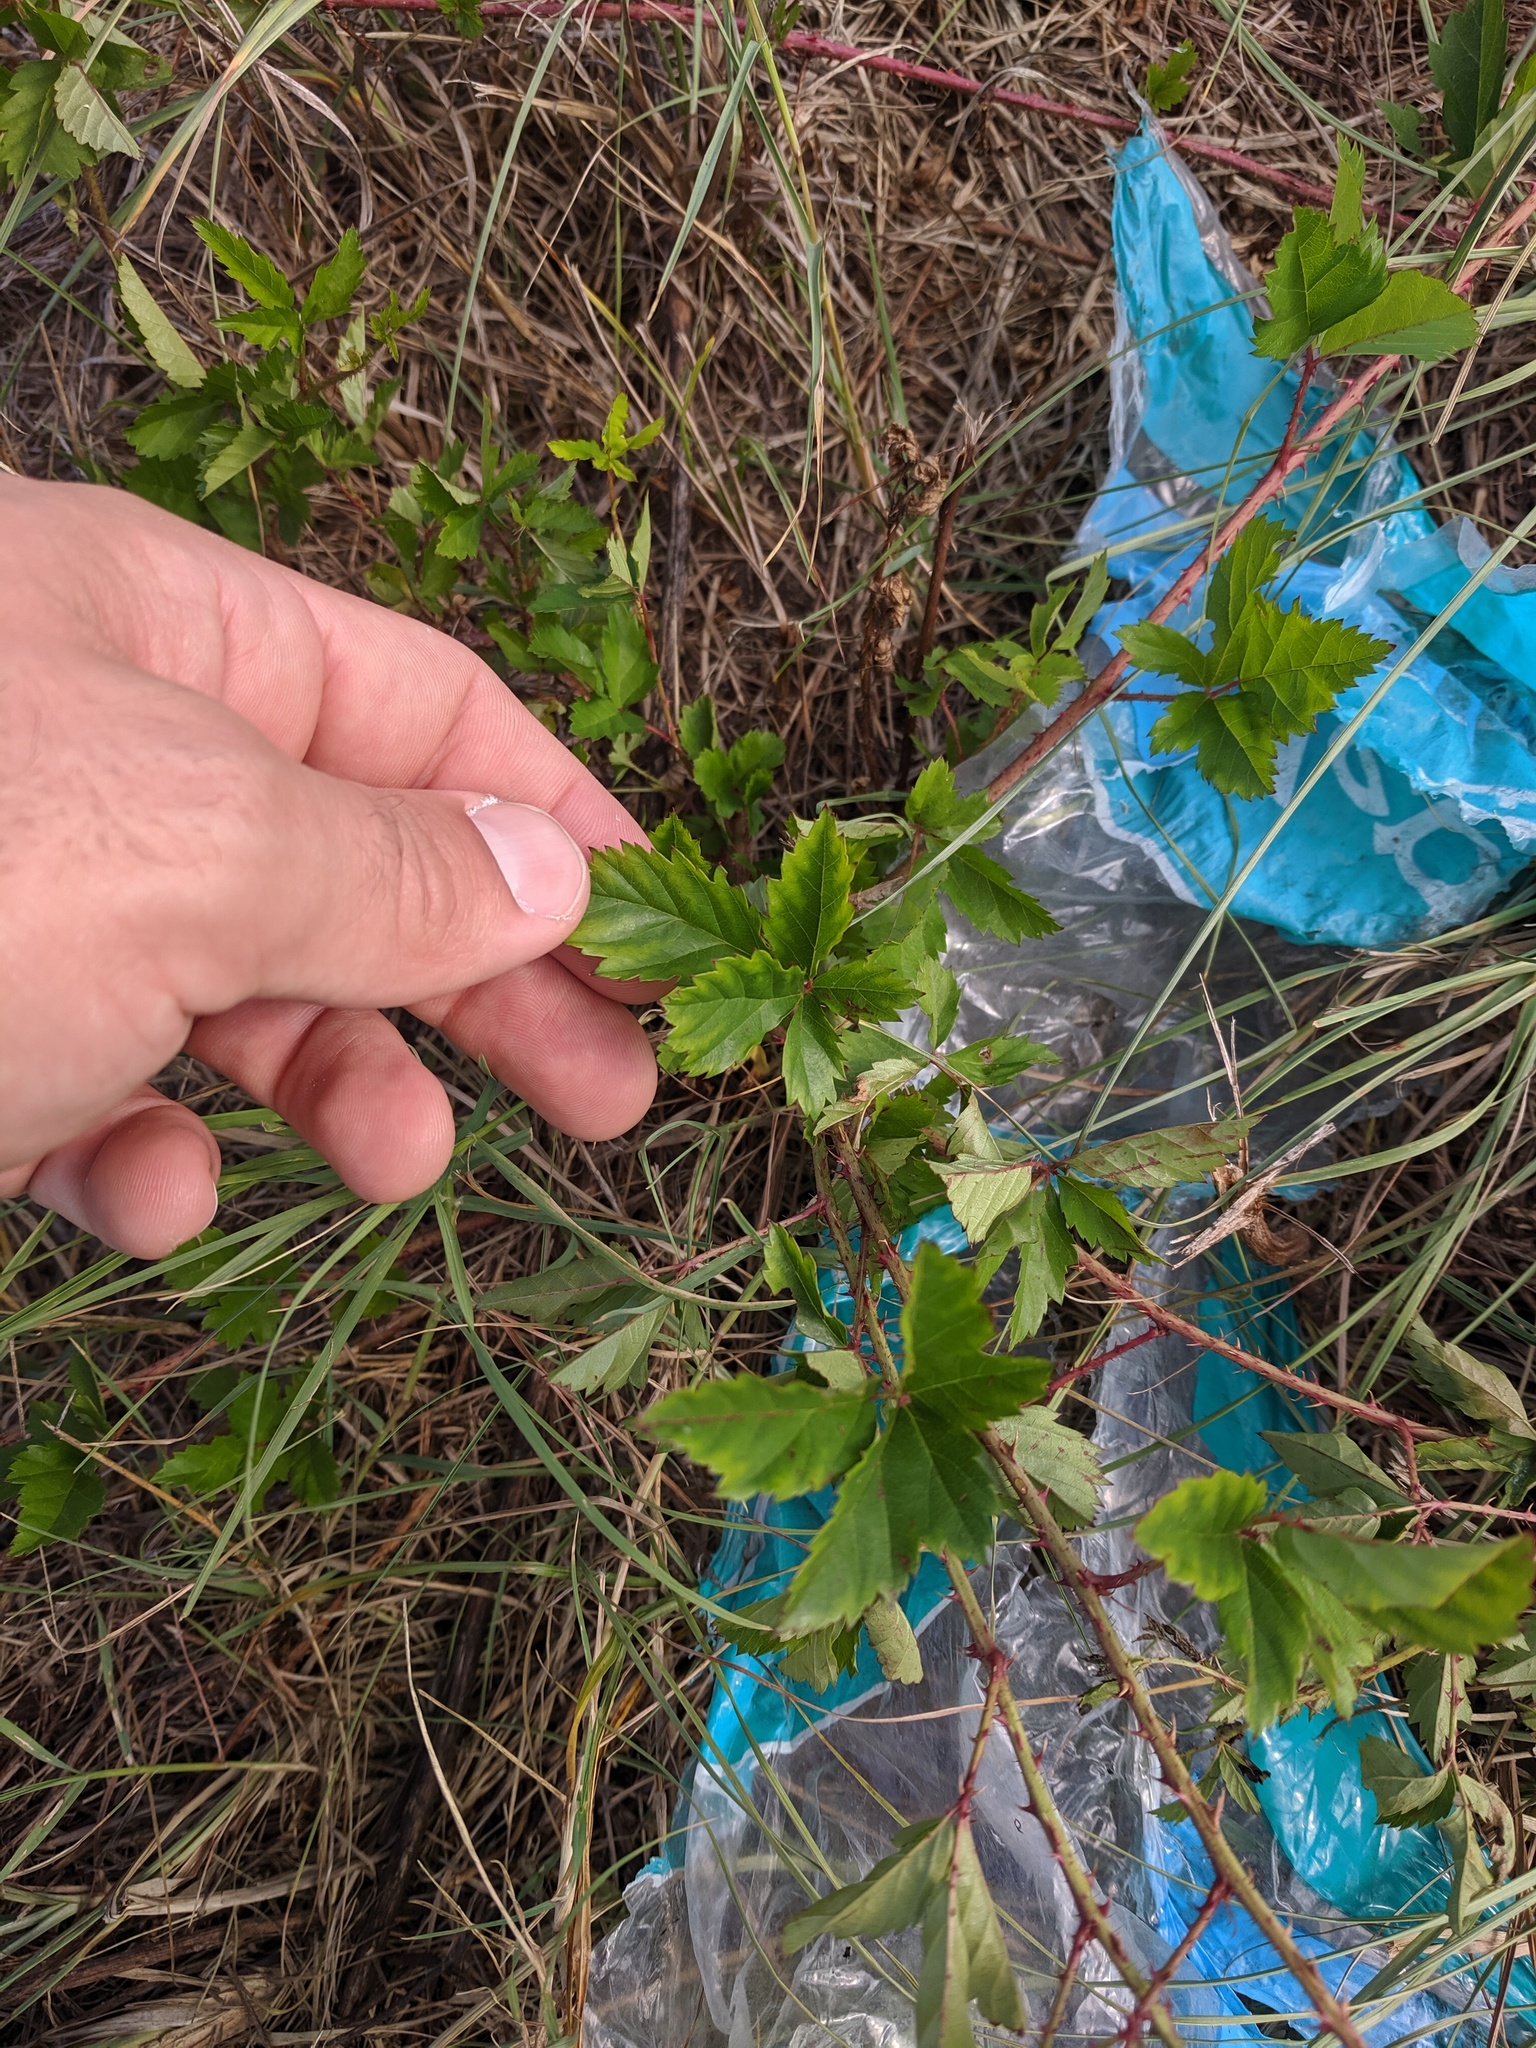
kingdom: Plantae
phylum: Tracheophyta
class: Magnoliopsida
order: Rosales
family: Rosaceae
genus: Rubus
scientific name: Rubus trivialis
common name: Southern dewberry
